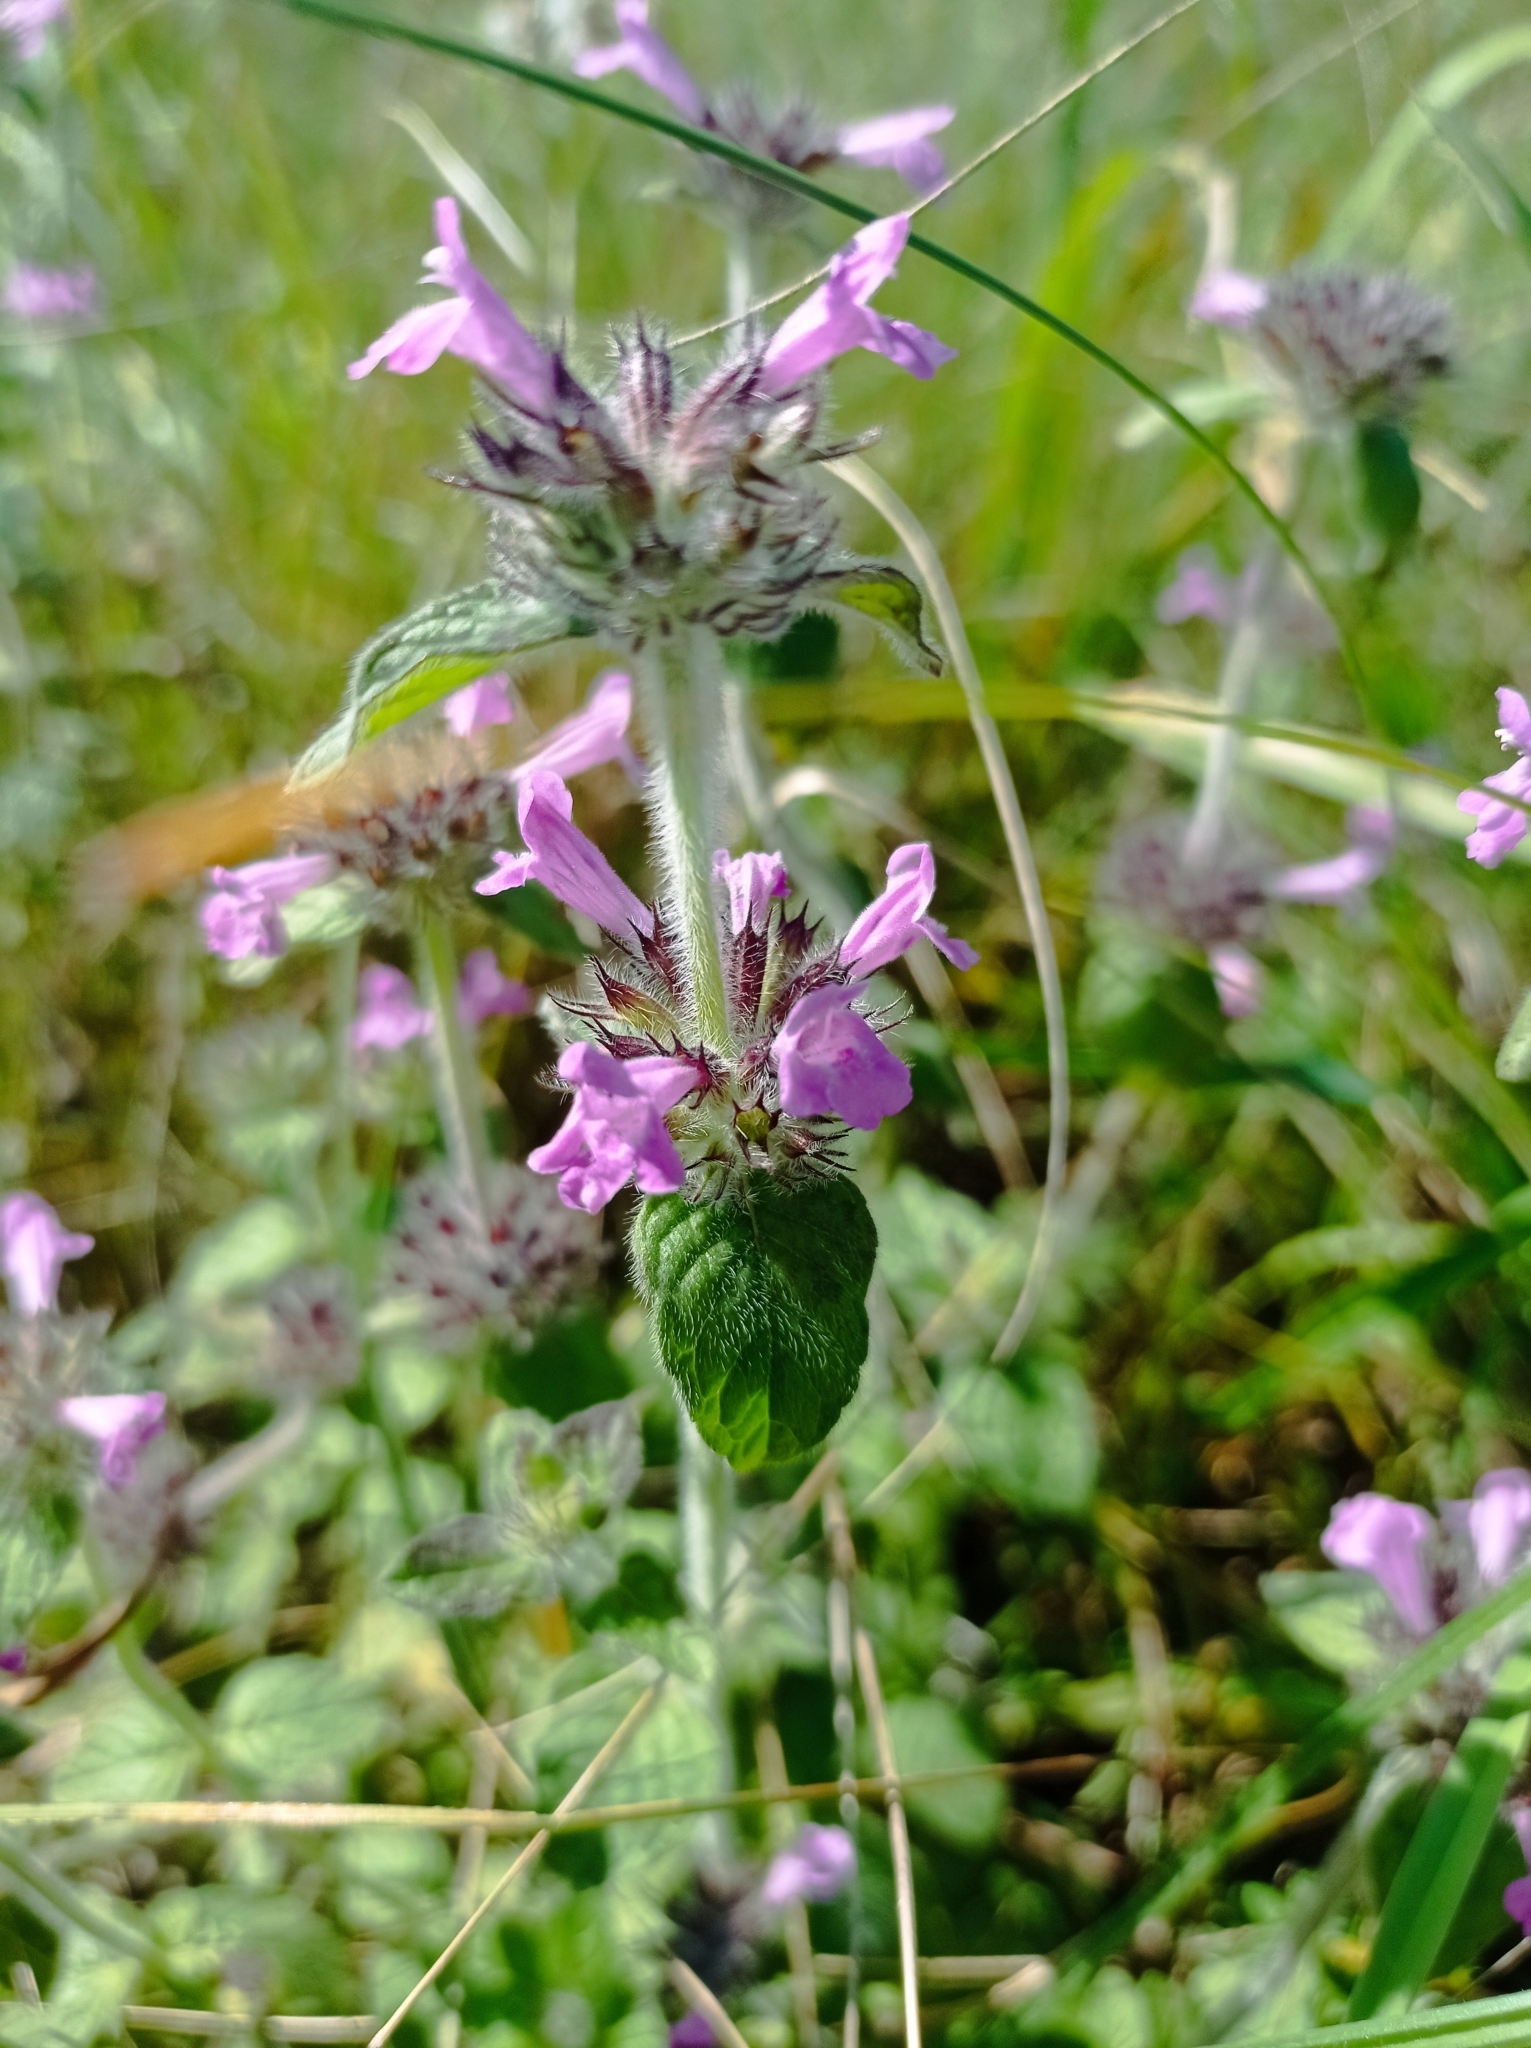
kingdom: Plantae
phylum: Tracheophyta
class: Magnoliopsida
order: Lamiales
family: Lamiaceae
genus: Clinopodium
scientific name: Clinopodium vulgare
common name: Wild basil
